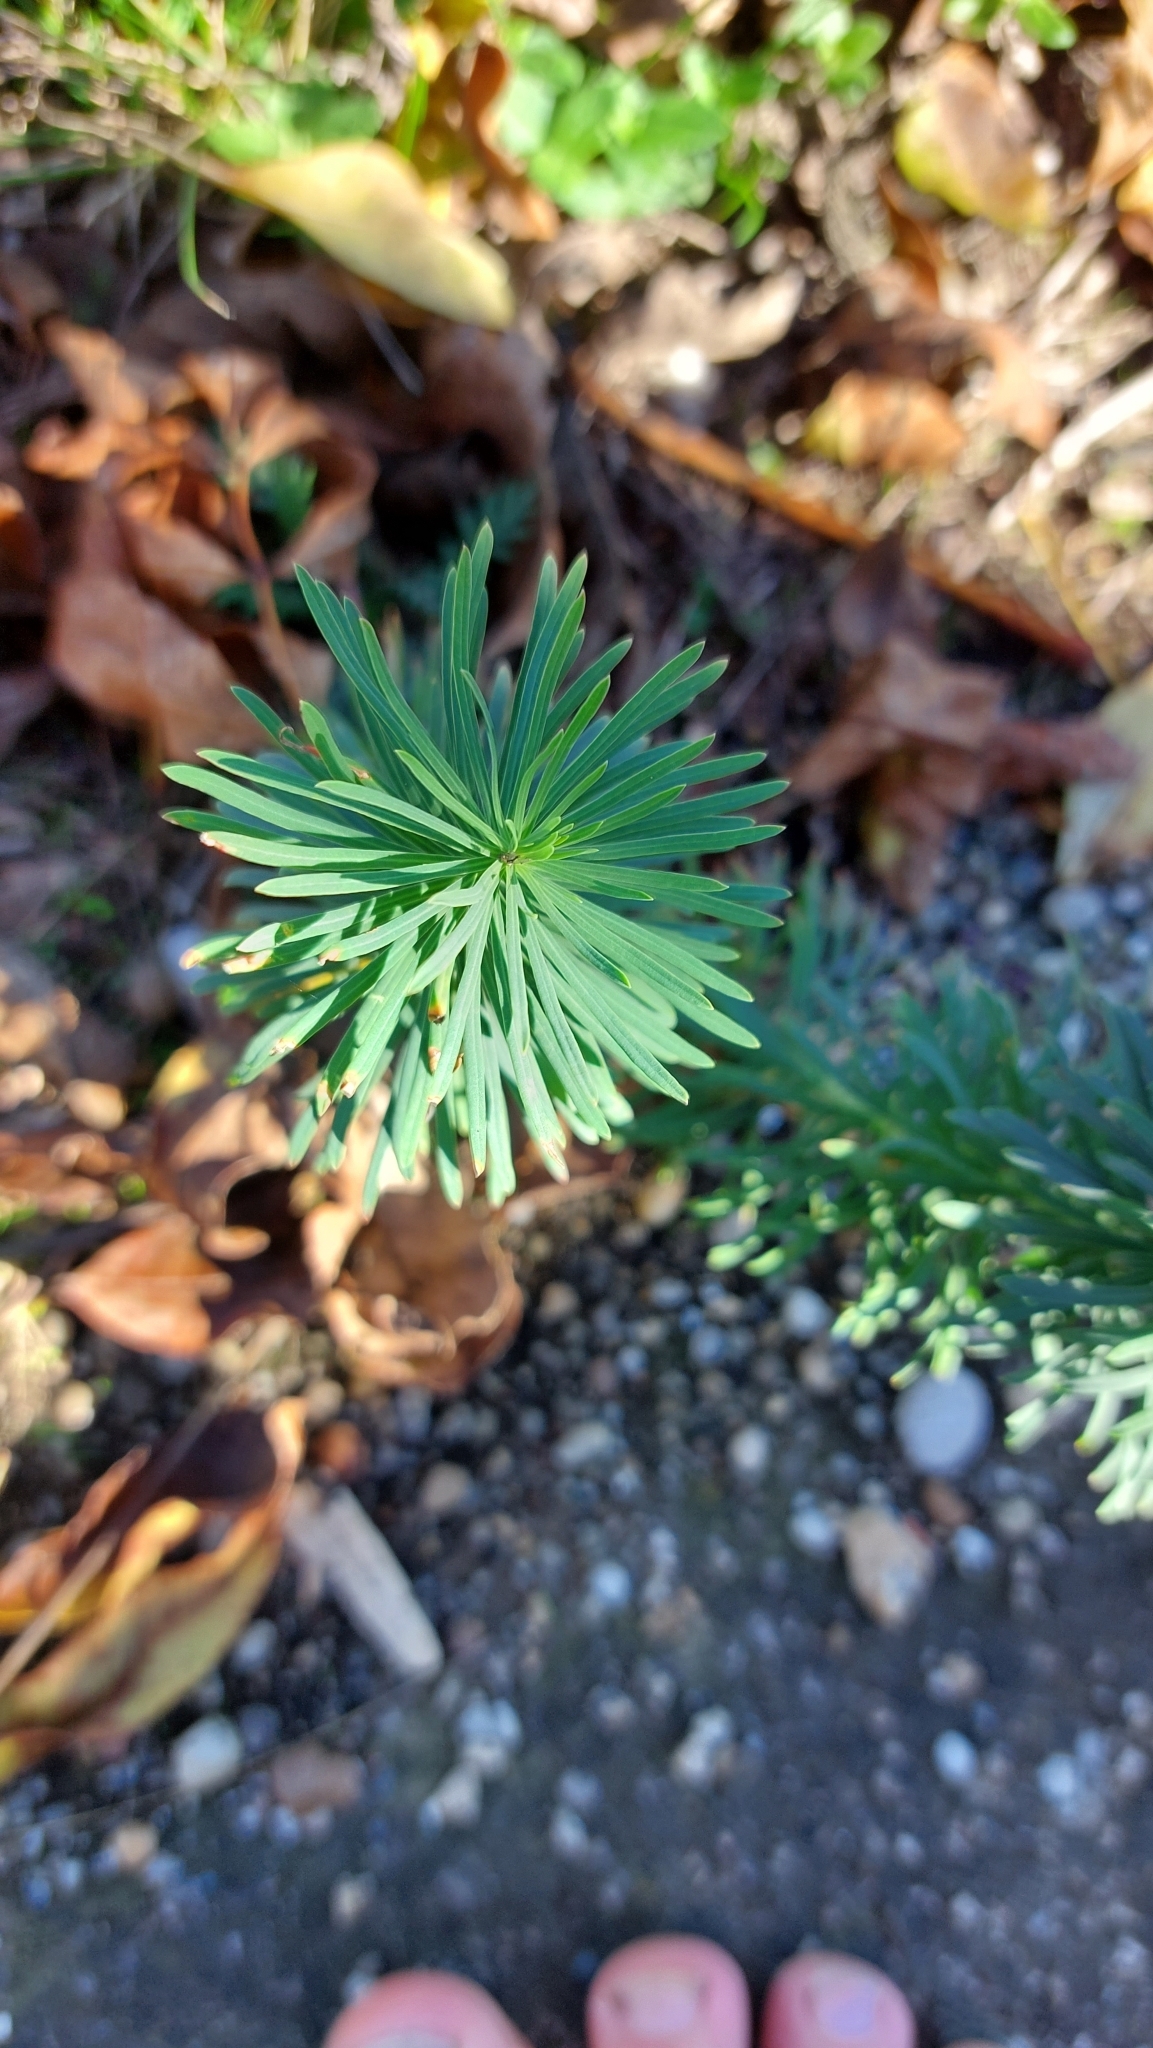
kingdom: Plantae
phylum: Tracheophyta
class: Magnoliopsida
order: Malpighiales
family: Euphorbiaceae
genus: Euphorbia
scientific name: Euphorbia cyparissias
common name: Cypress spurge
